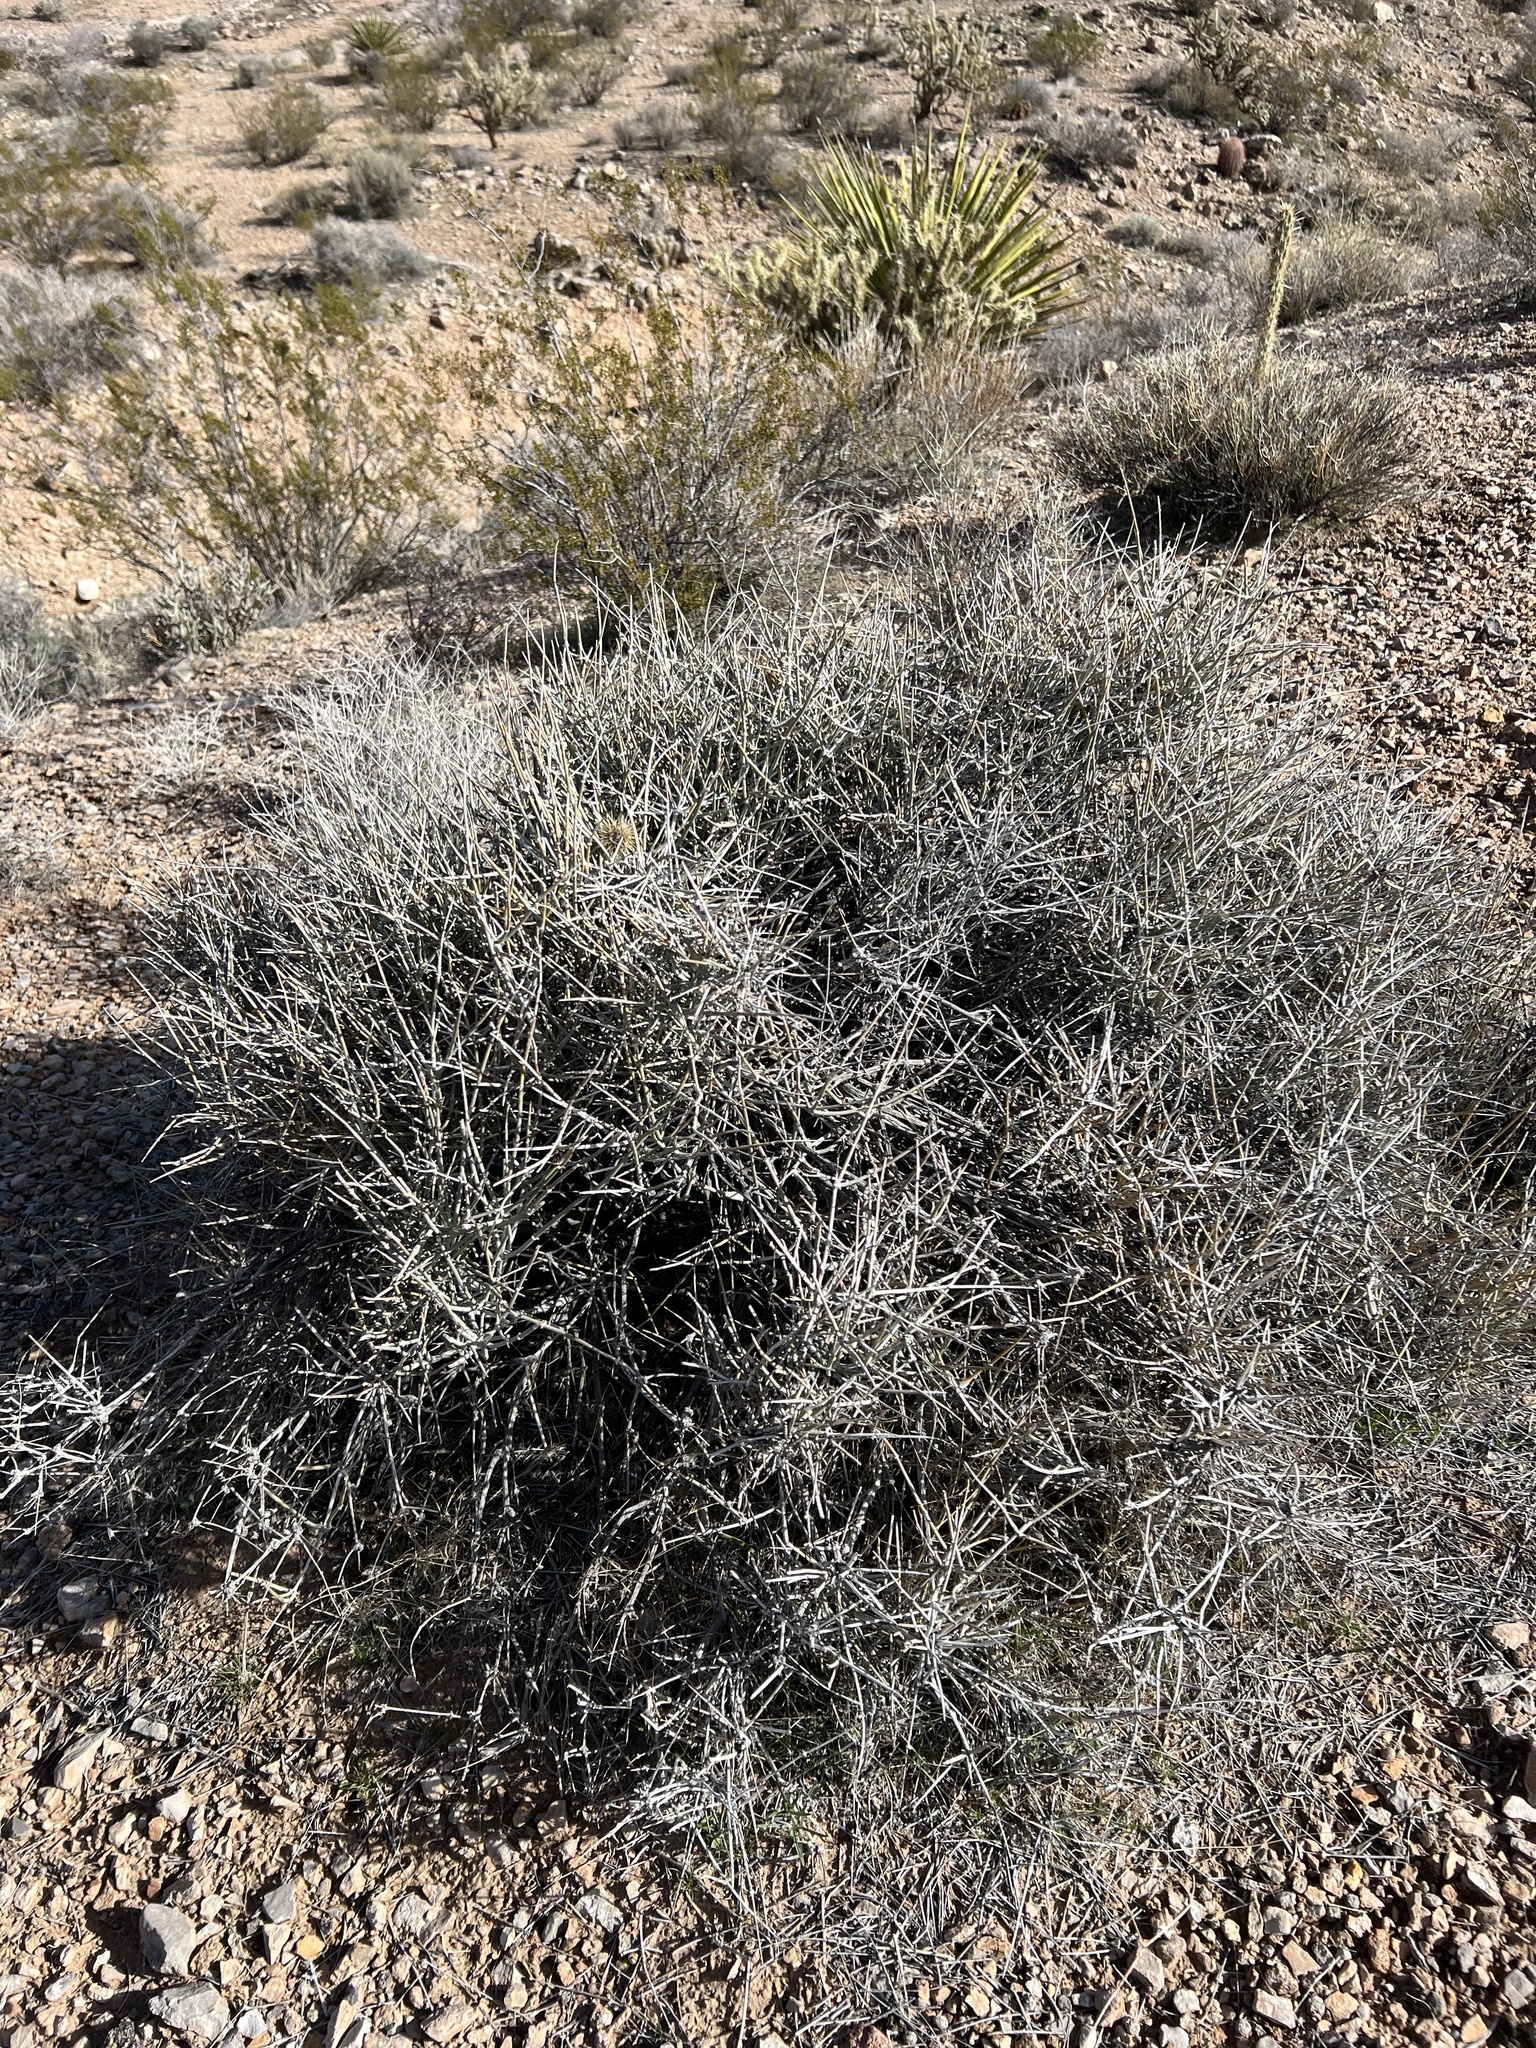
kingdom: Plantae
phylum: Tracheophyta
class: Gnetopsida
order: Ephedrales
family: Ephedraceae
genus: Ephedra
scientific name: Ephedra nevadensis
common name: Gray ephedra
